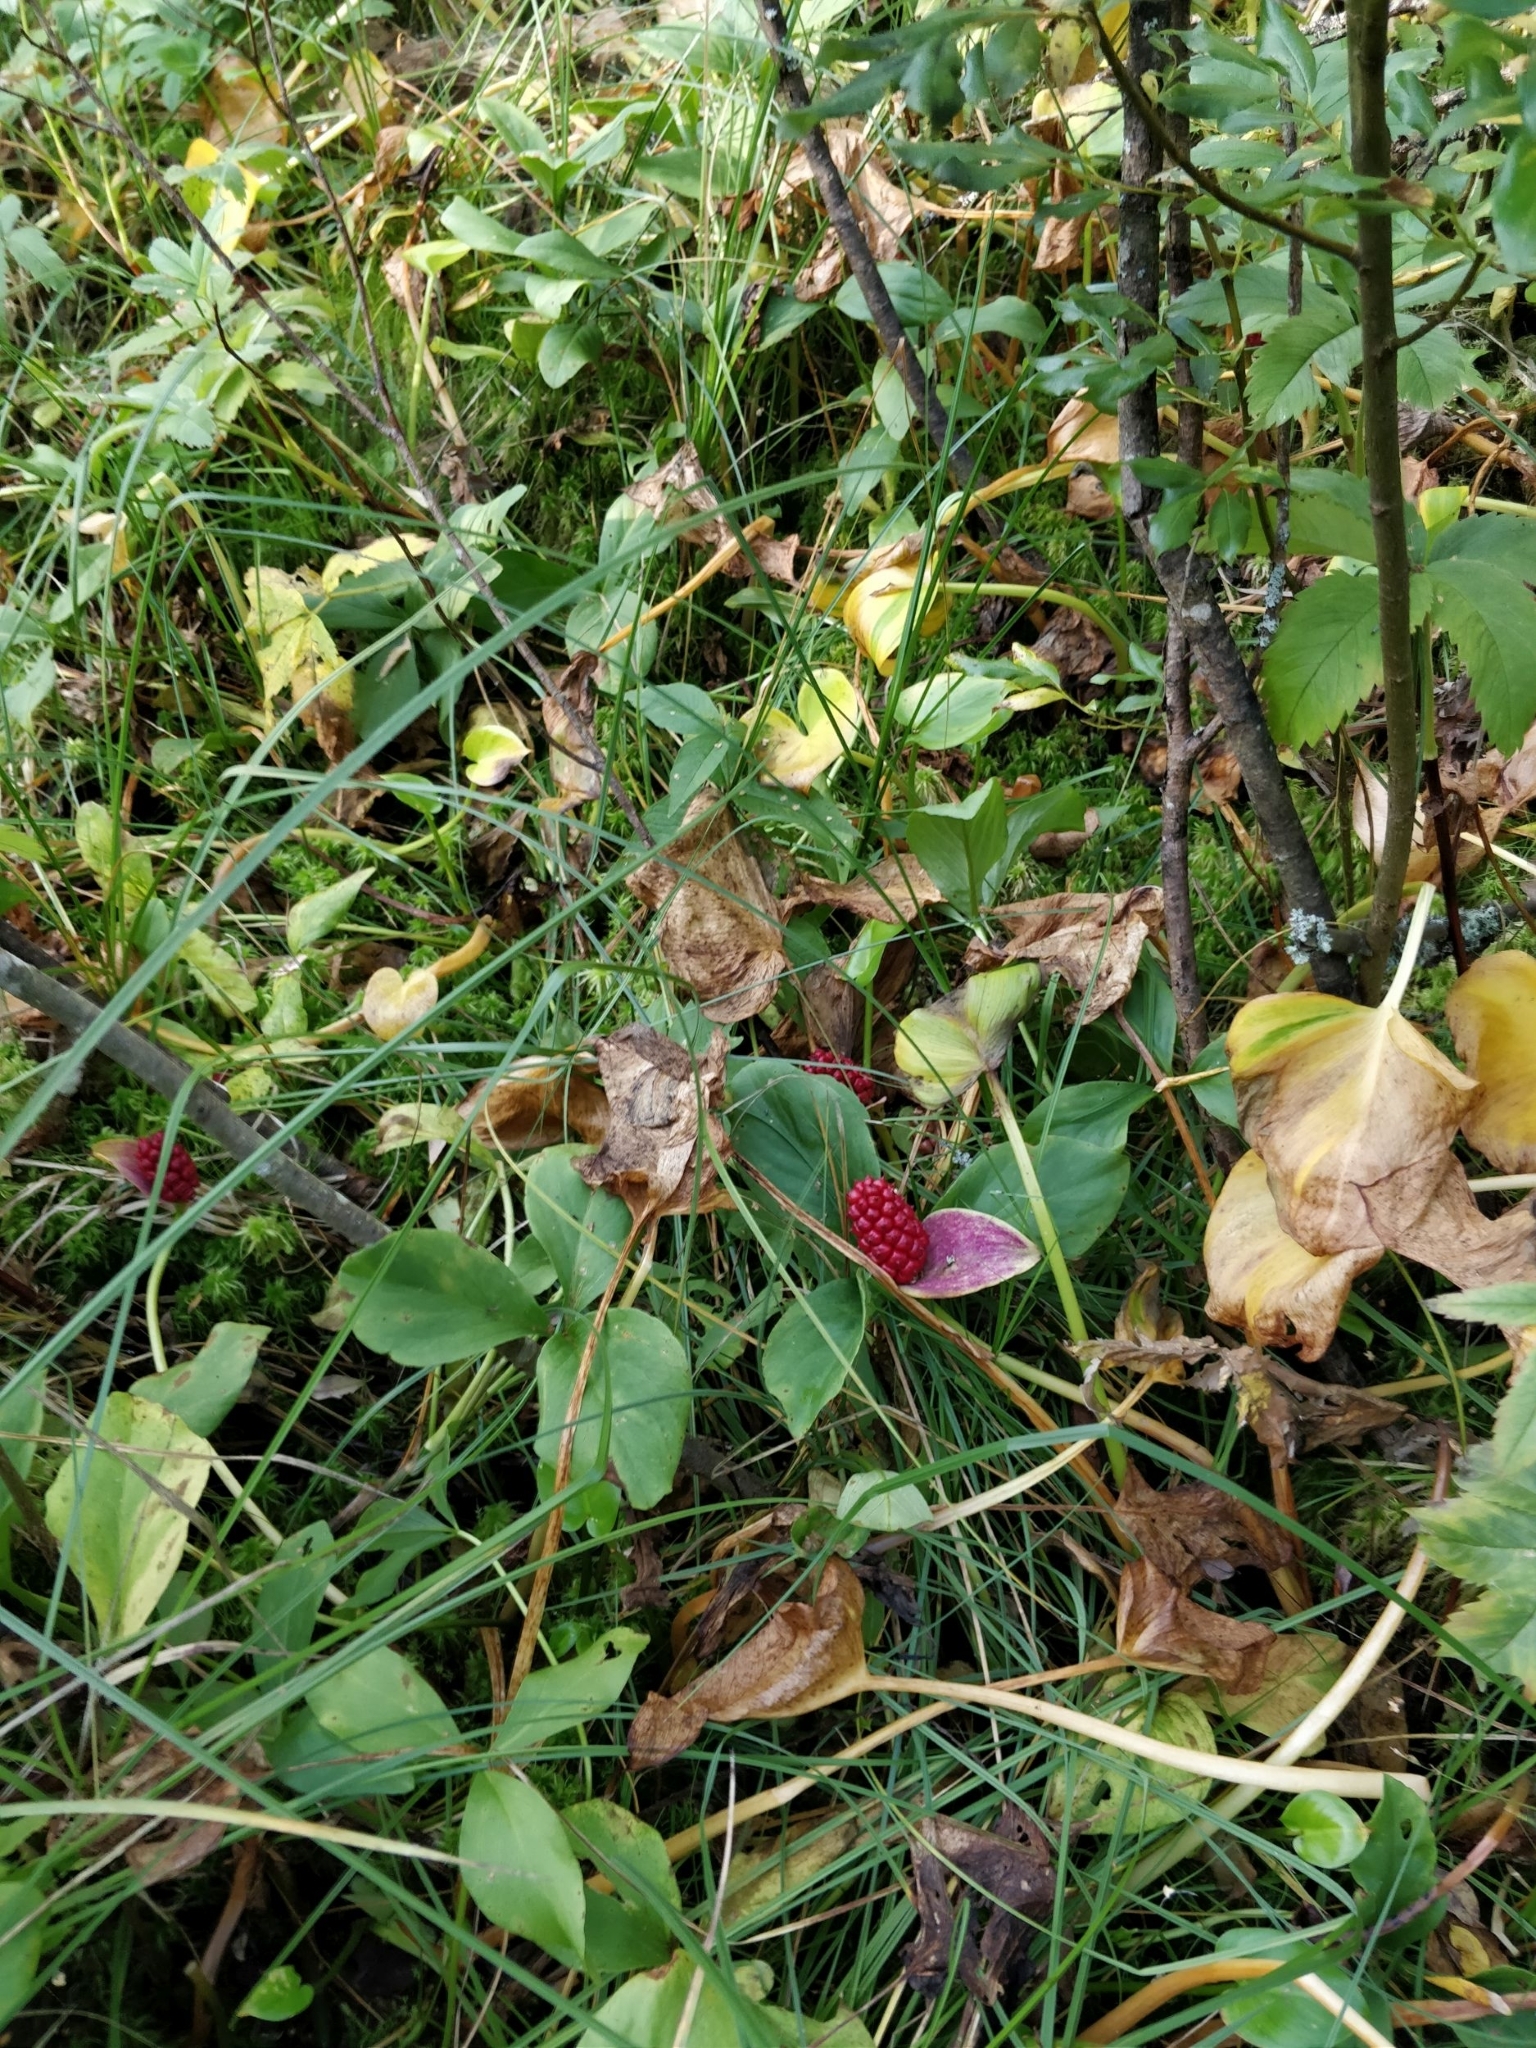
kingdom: Plantae
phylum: Tracheophyta
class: Liliopsida
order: Alismatales
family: Araceae
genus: Calla
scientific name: Calla palustris
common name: Bog arum
